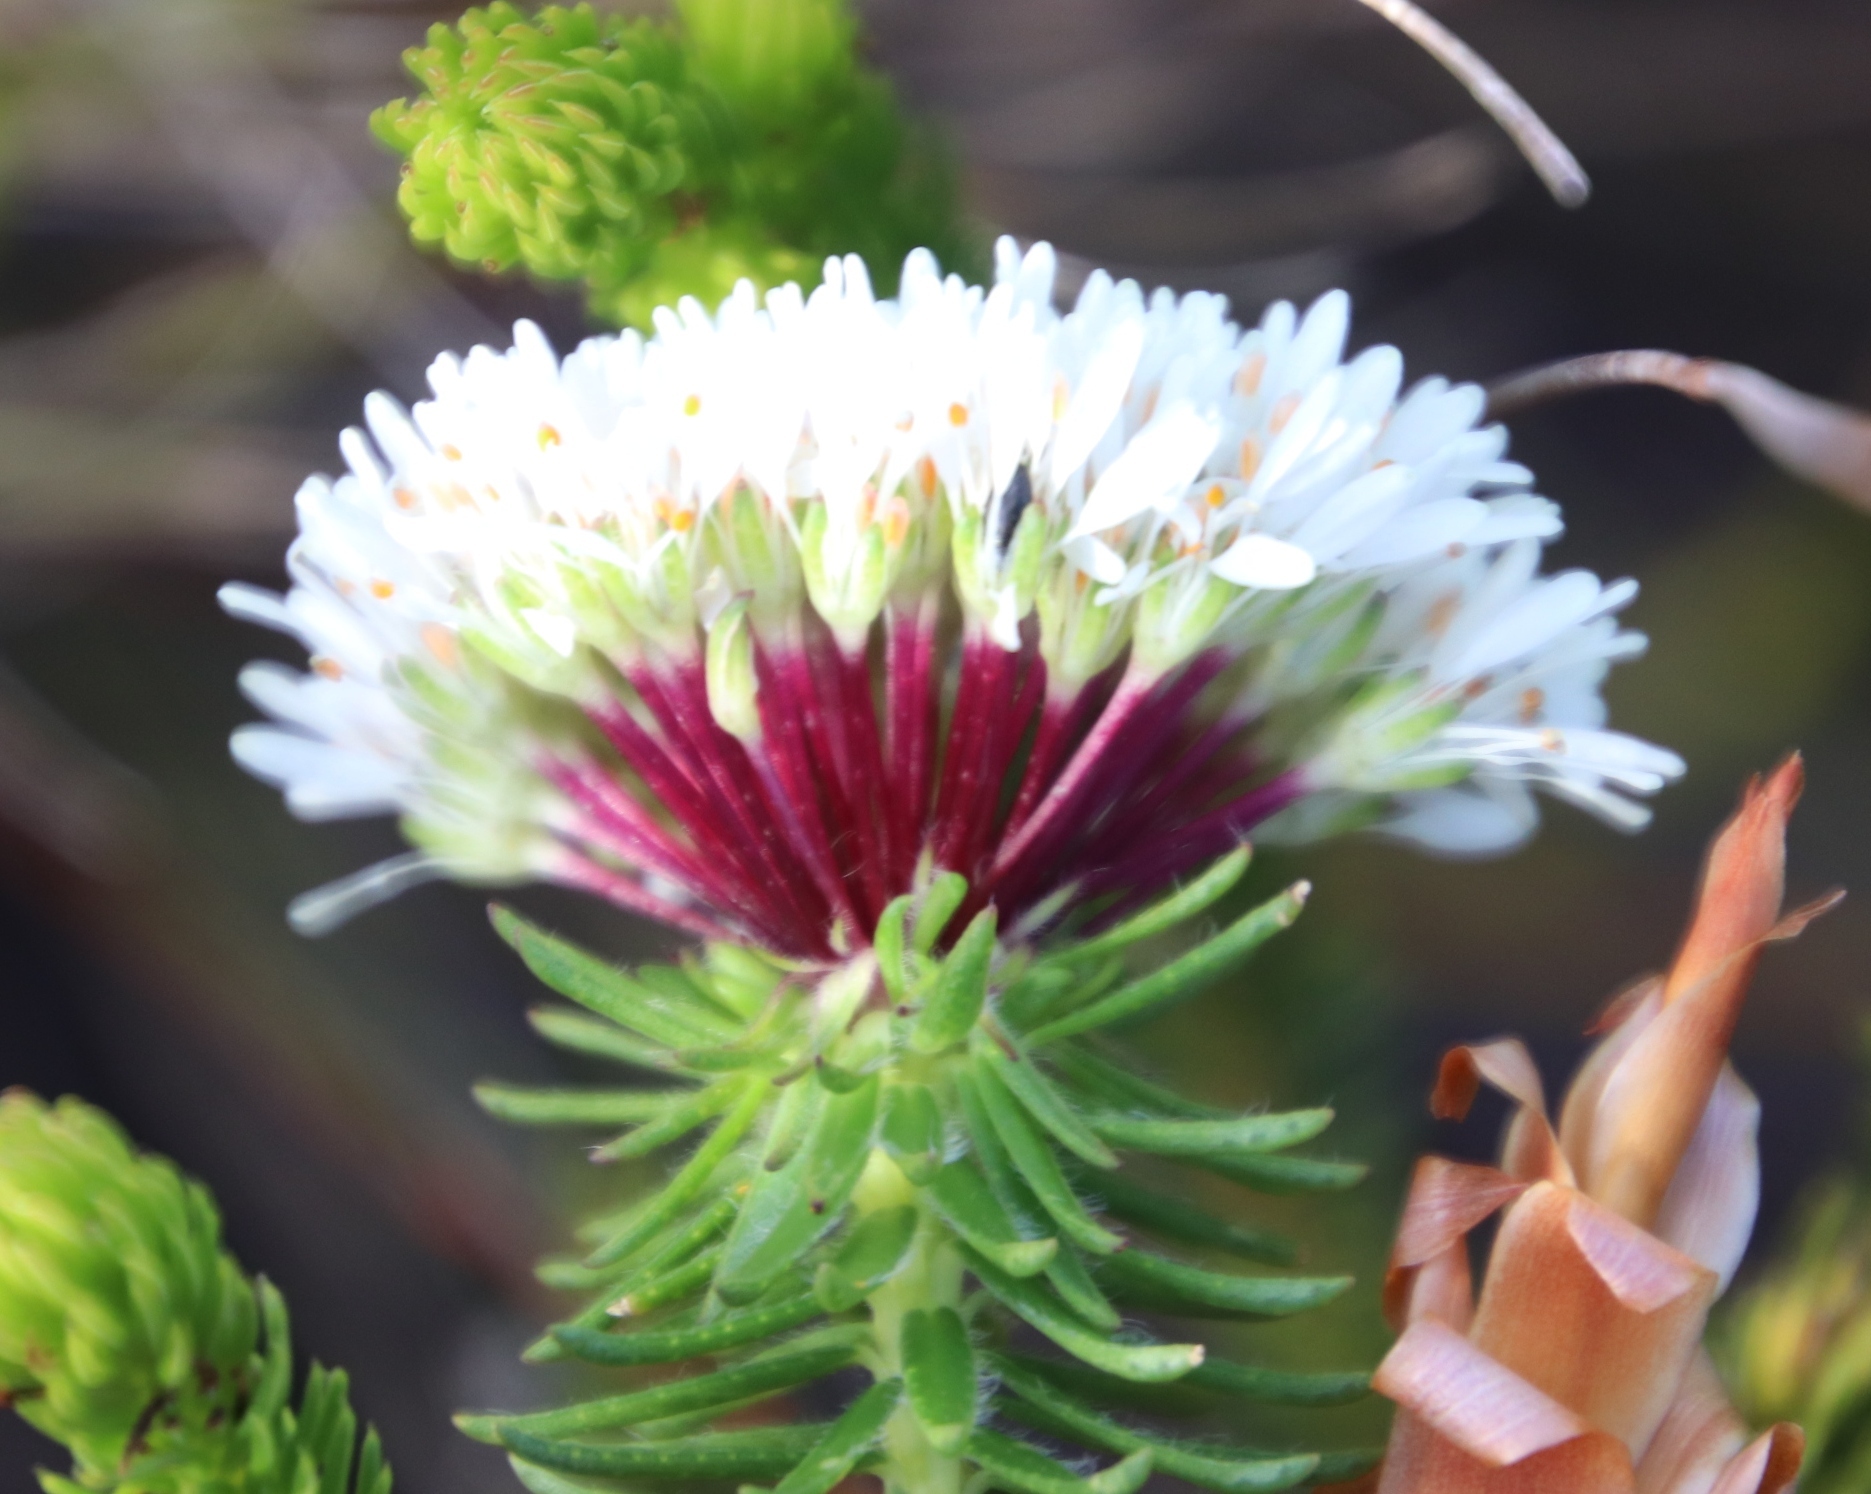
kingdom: Plantae
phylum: Tracheophyta
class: Magnoliopsida
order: Sapindales
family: Rutaceae
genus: Agathosma
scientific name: Agathosma bifida
